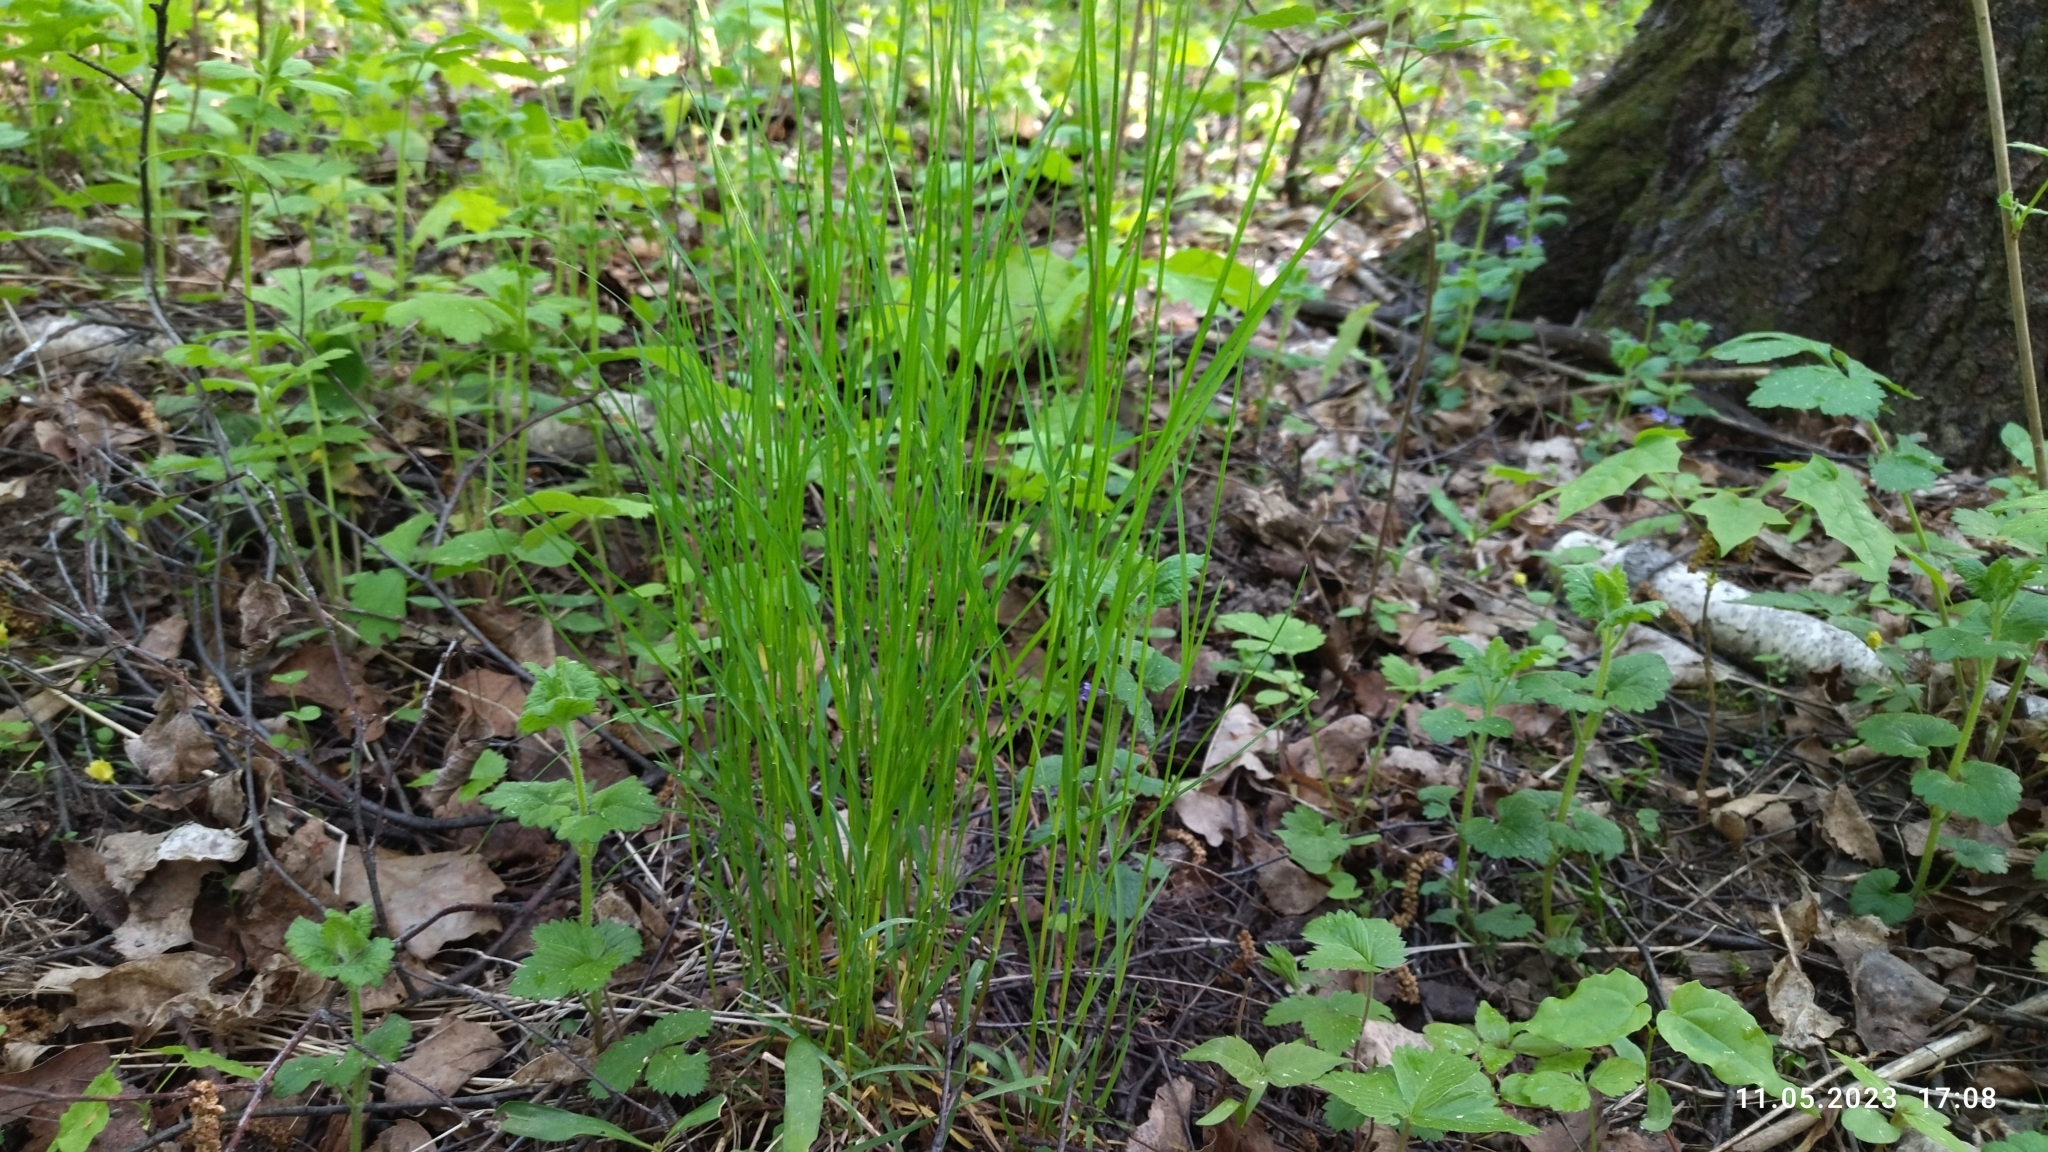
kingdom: Plantae
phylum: Tracheophyta
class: Liliopsida
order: Poales
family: Poaceae
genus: Poa
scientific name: Poa nemoralis
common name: Wood bluegrass
